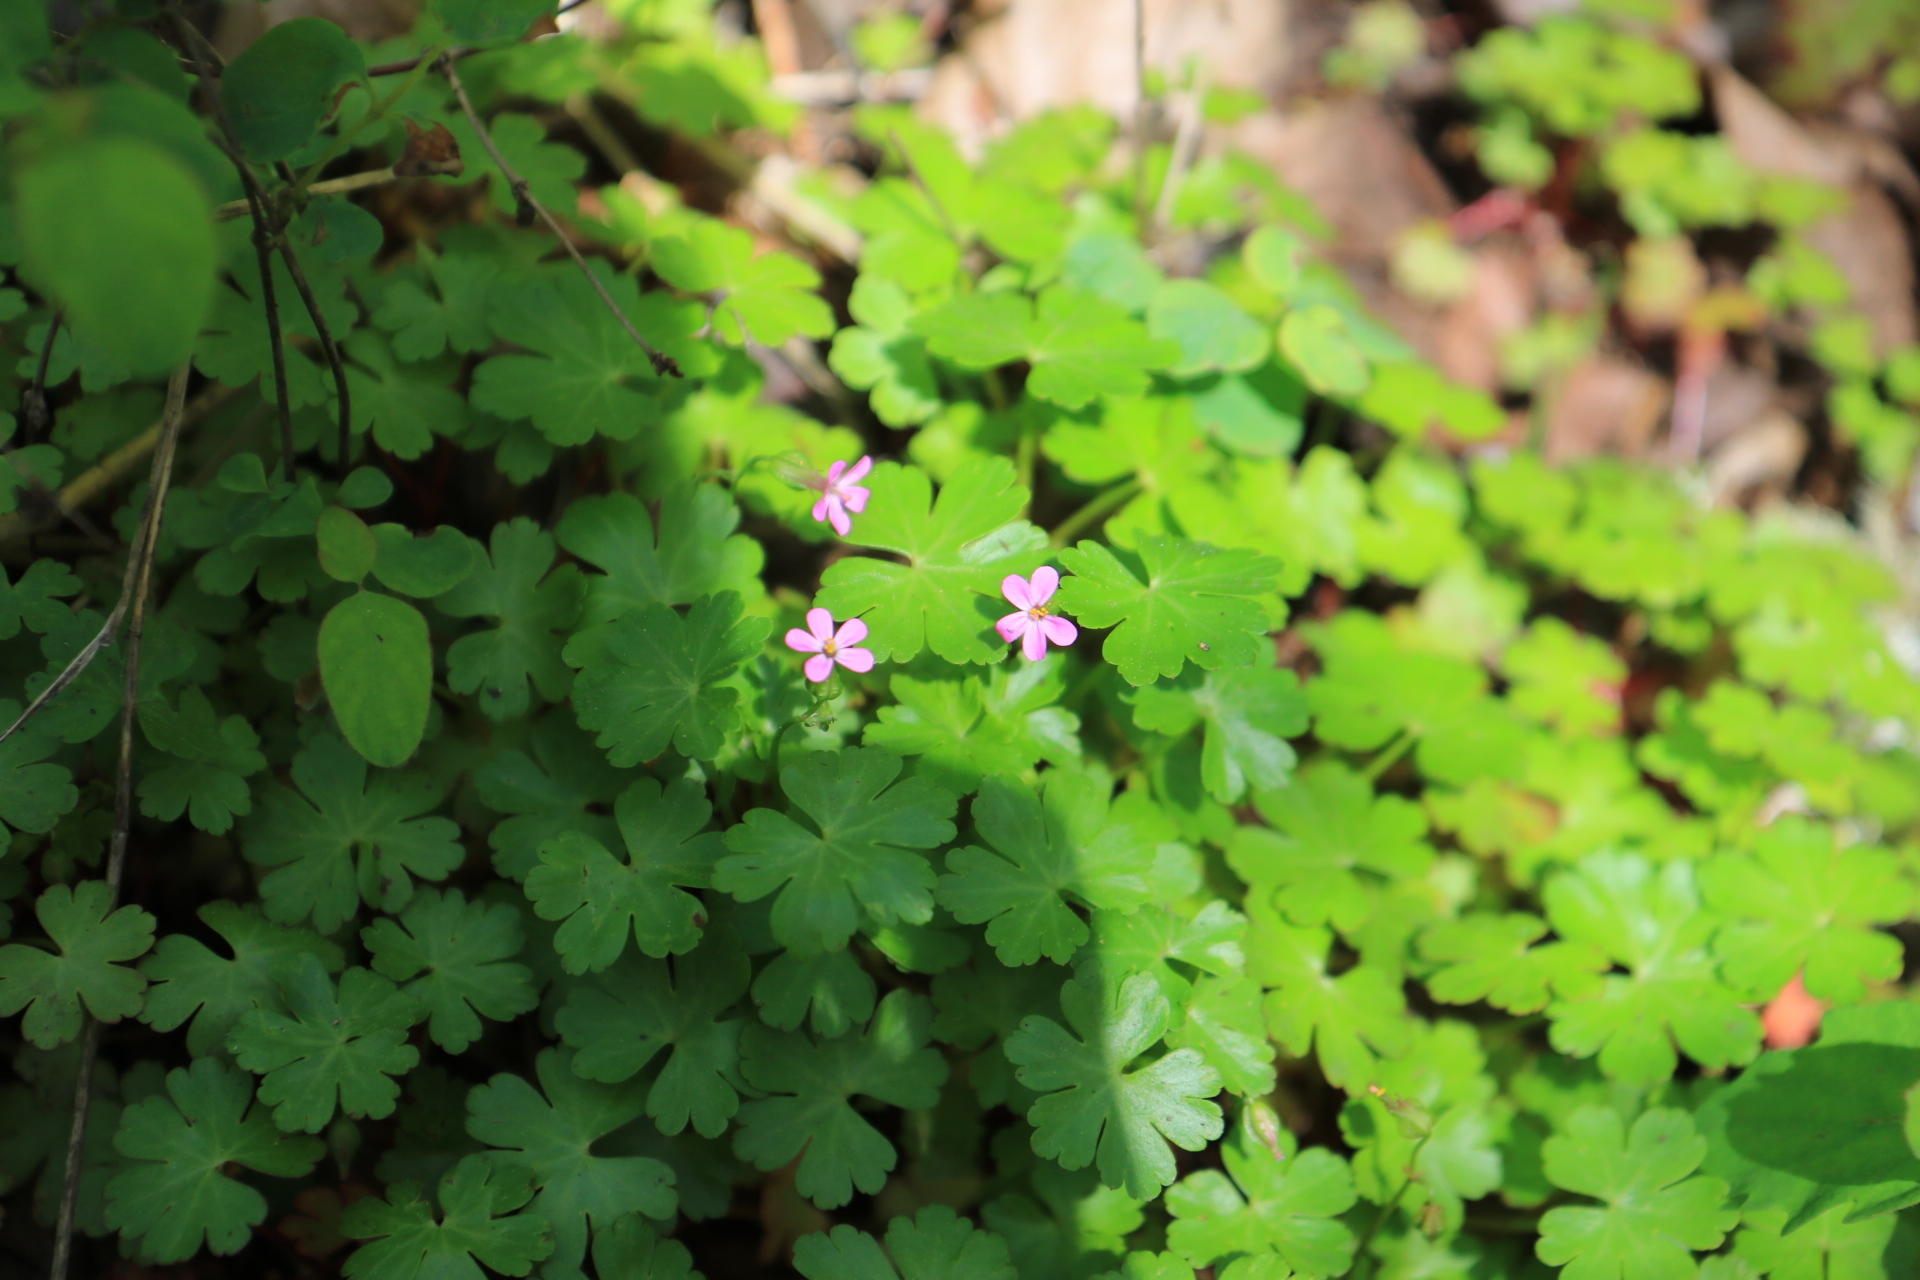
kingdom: Plantae
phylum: Tracheophyta
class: Magnoliopsida
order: Geraniales
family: Geraniaceae
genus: Geranium
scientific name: Geranium lucidum
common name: Shining crane's-bill
